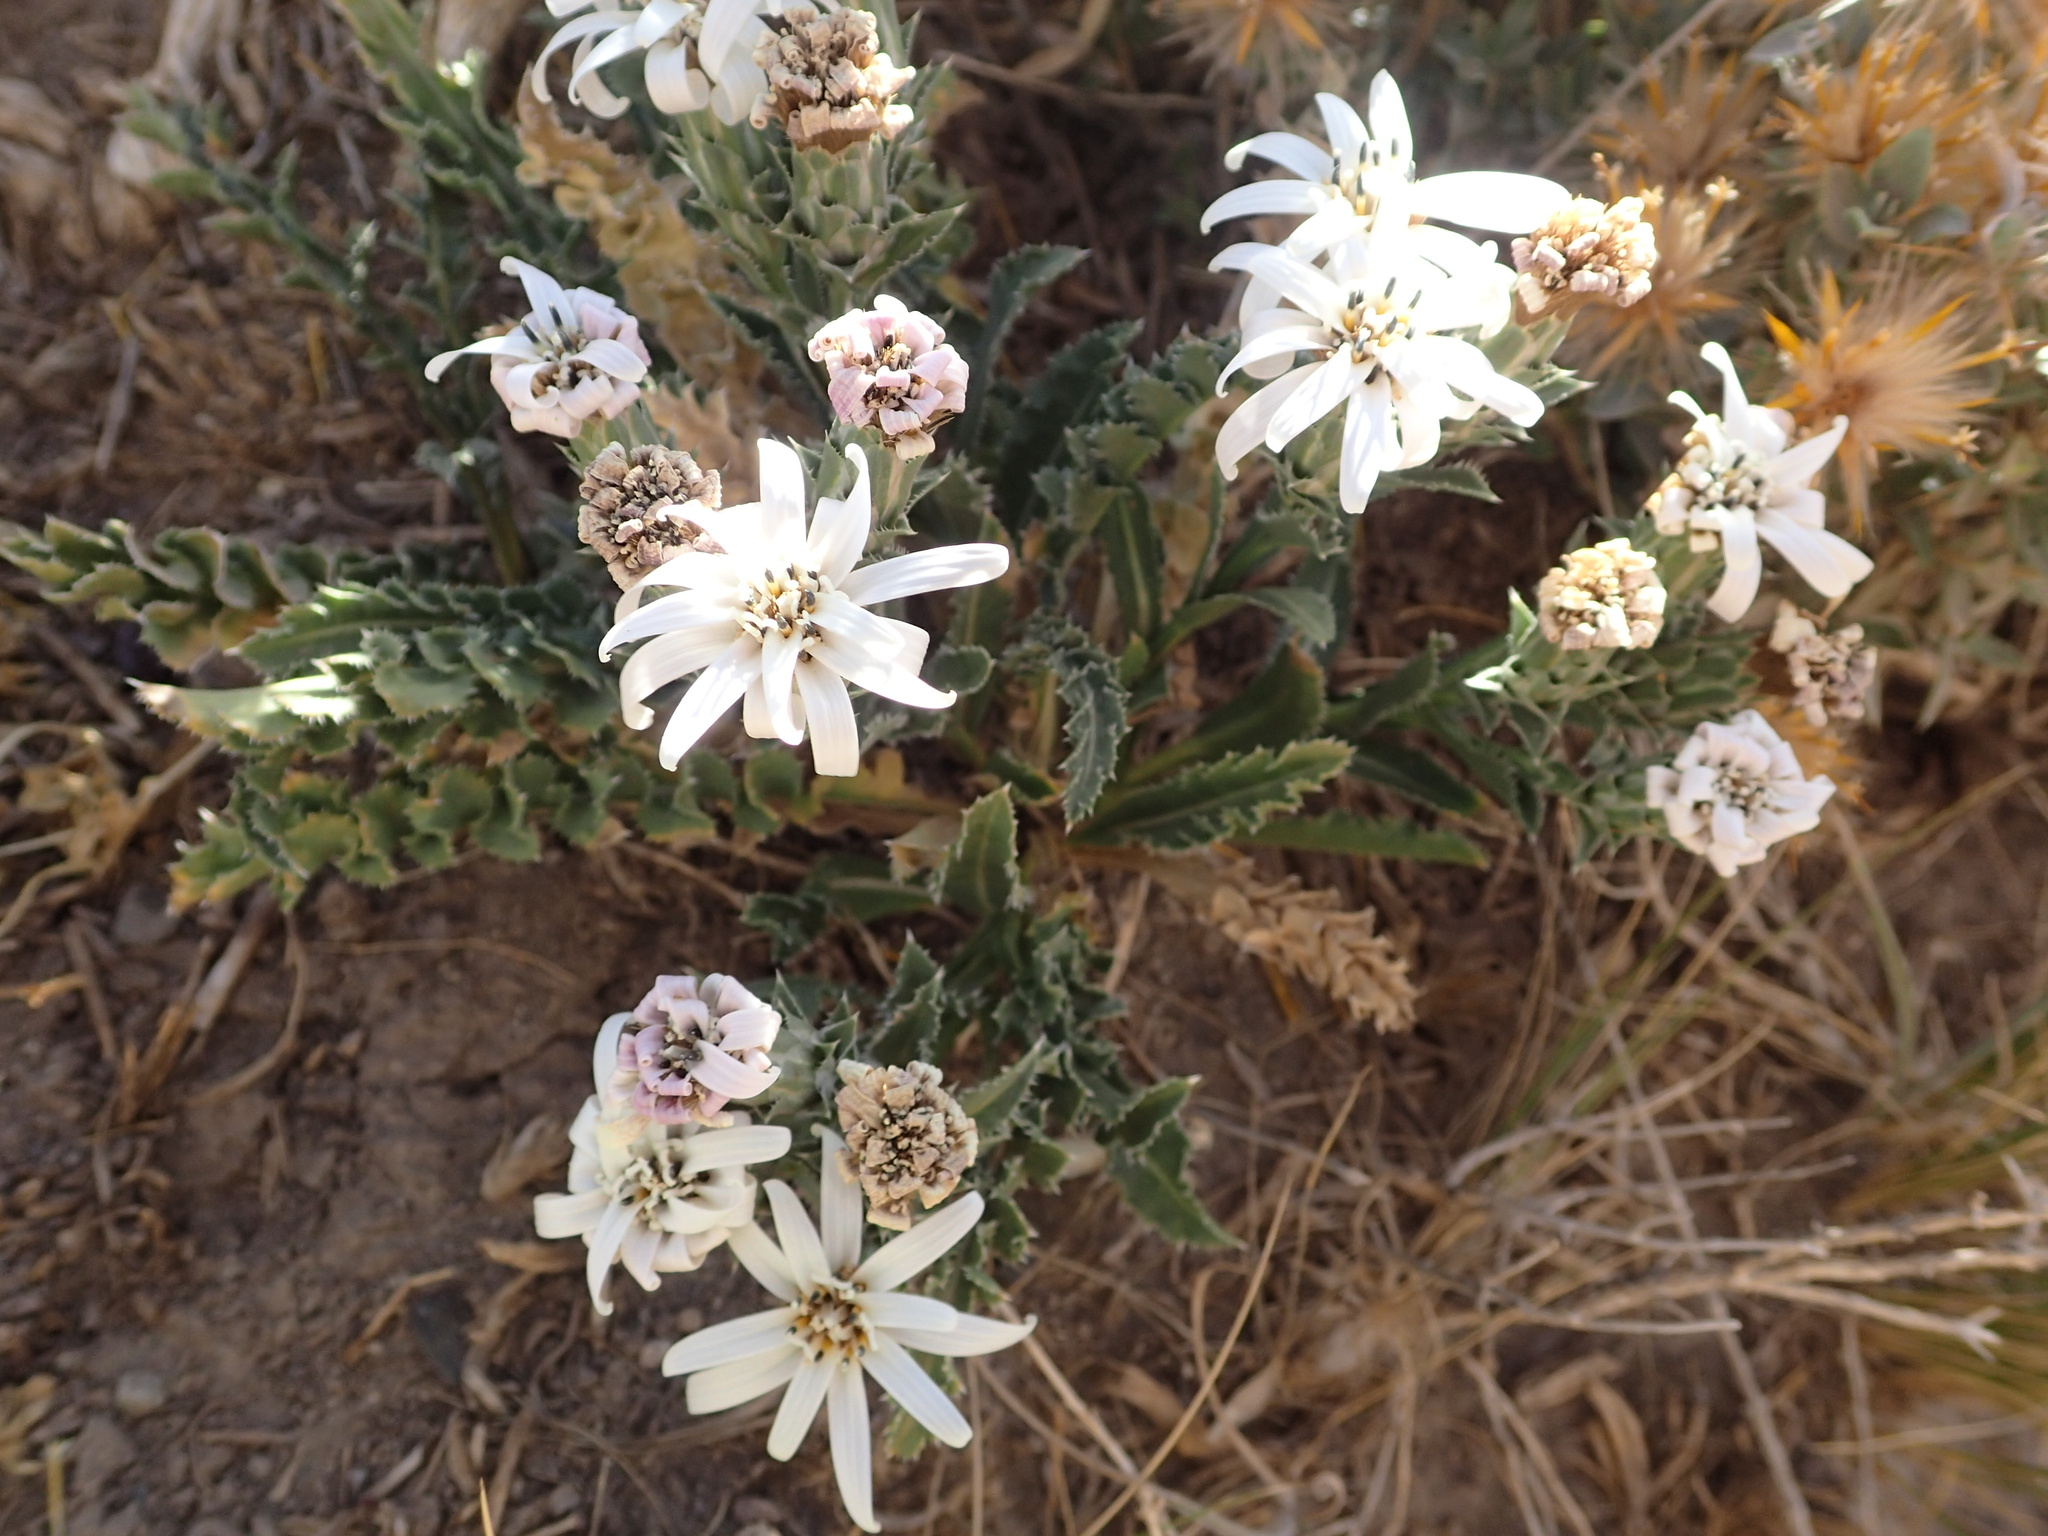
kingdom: Plantae
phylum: Tracheophyta
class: Magnoliopsida
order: Asterales
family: Asteraceae
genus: Perezia
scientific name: Perezia carthamoides
